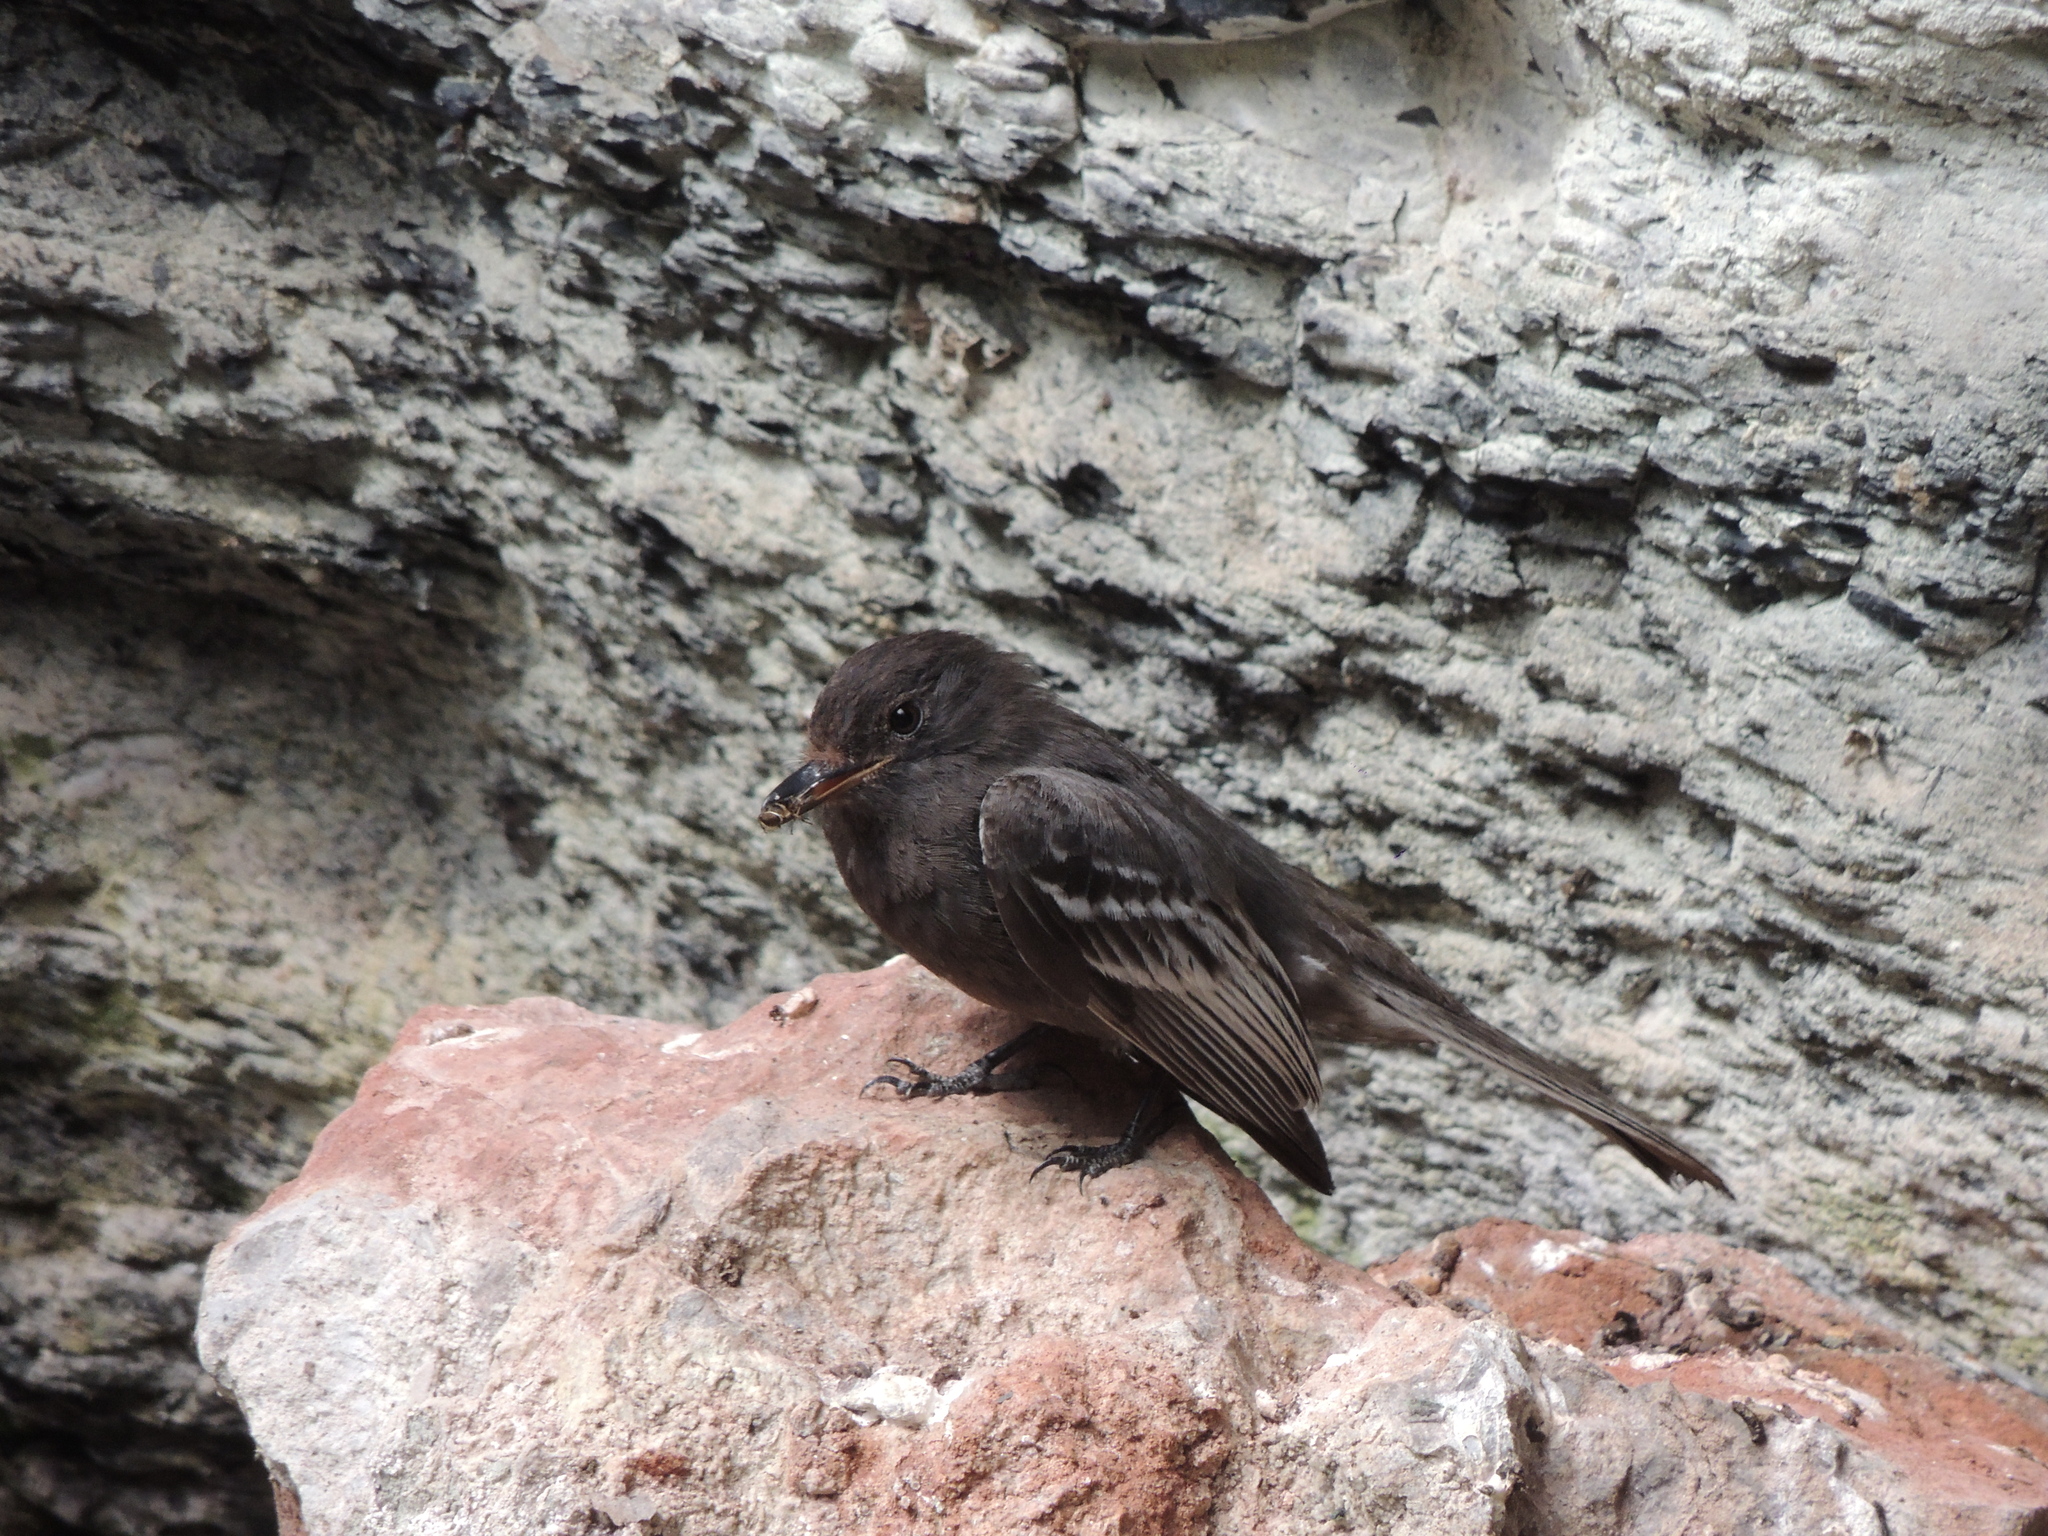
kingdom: Animalia
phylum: Chordata
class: Aves
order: Passeriformes
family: Tyrannidae
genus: Sayornis
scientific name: Sayornis nigricans
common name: Black phoebe
